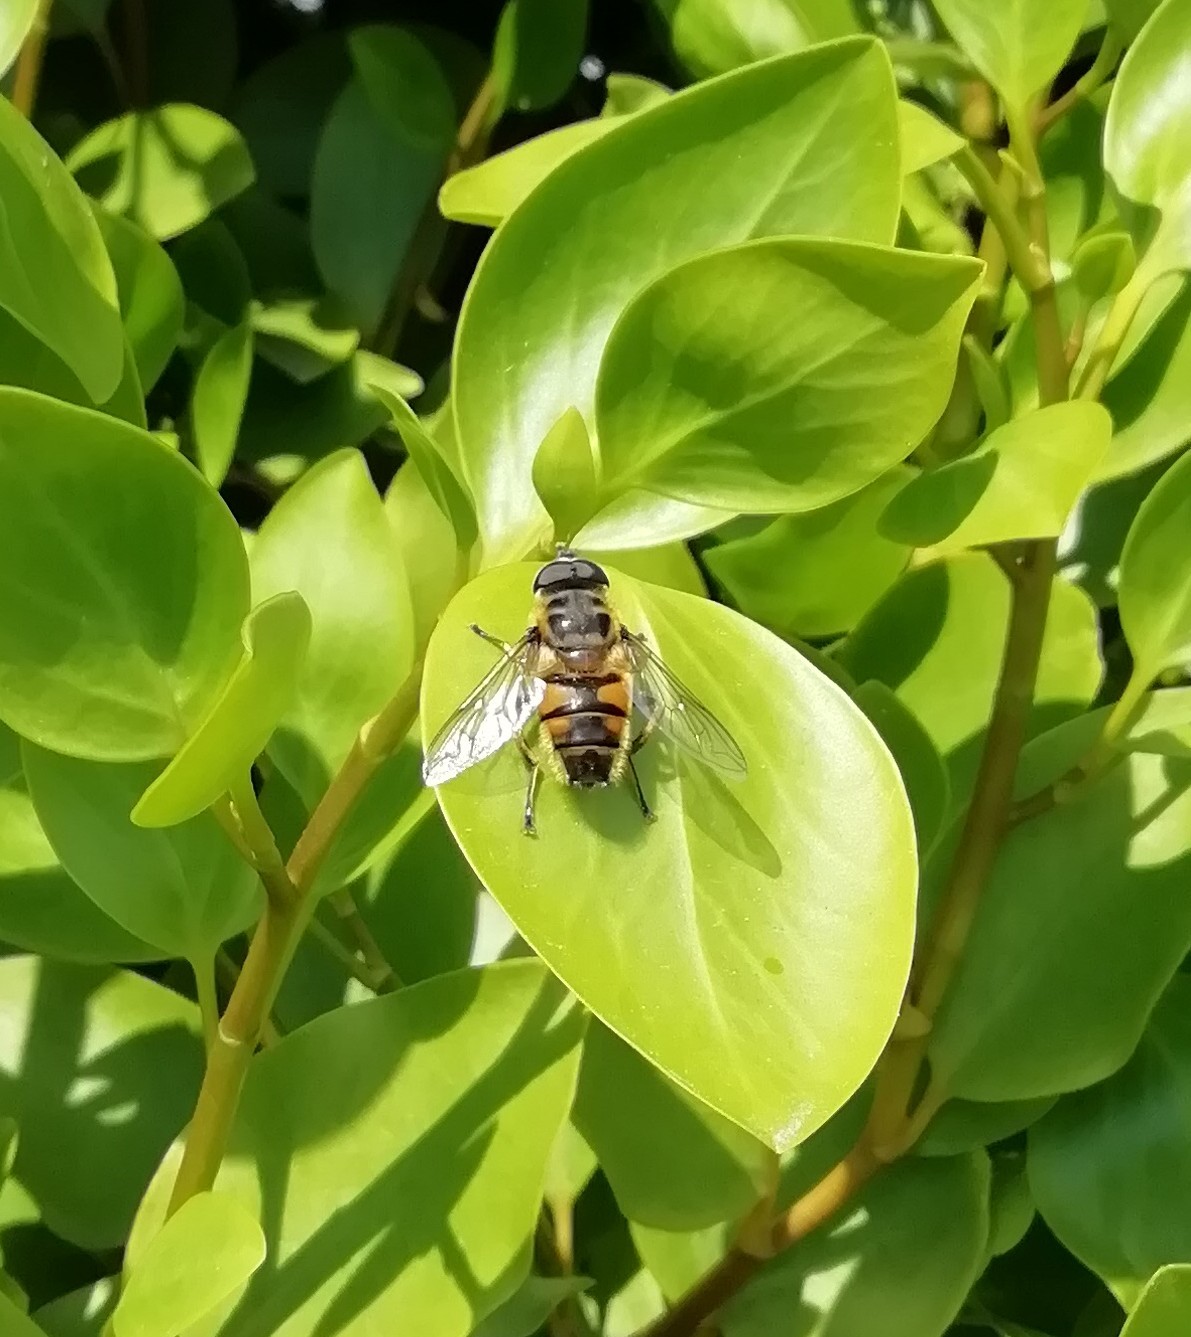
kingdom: Animalia
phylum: Arthropoda
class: Insecta
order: Diptera
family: Syrphidae
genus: Myathropa
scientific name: Myathropa florea
